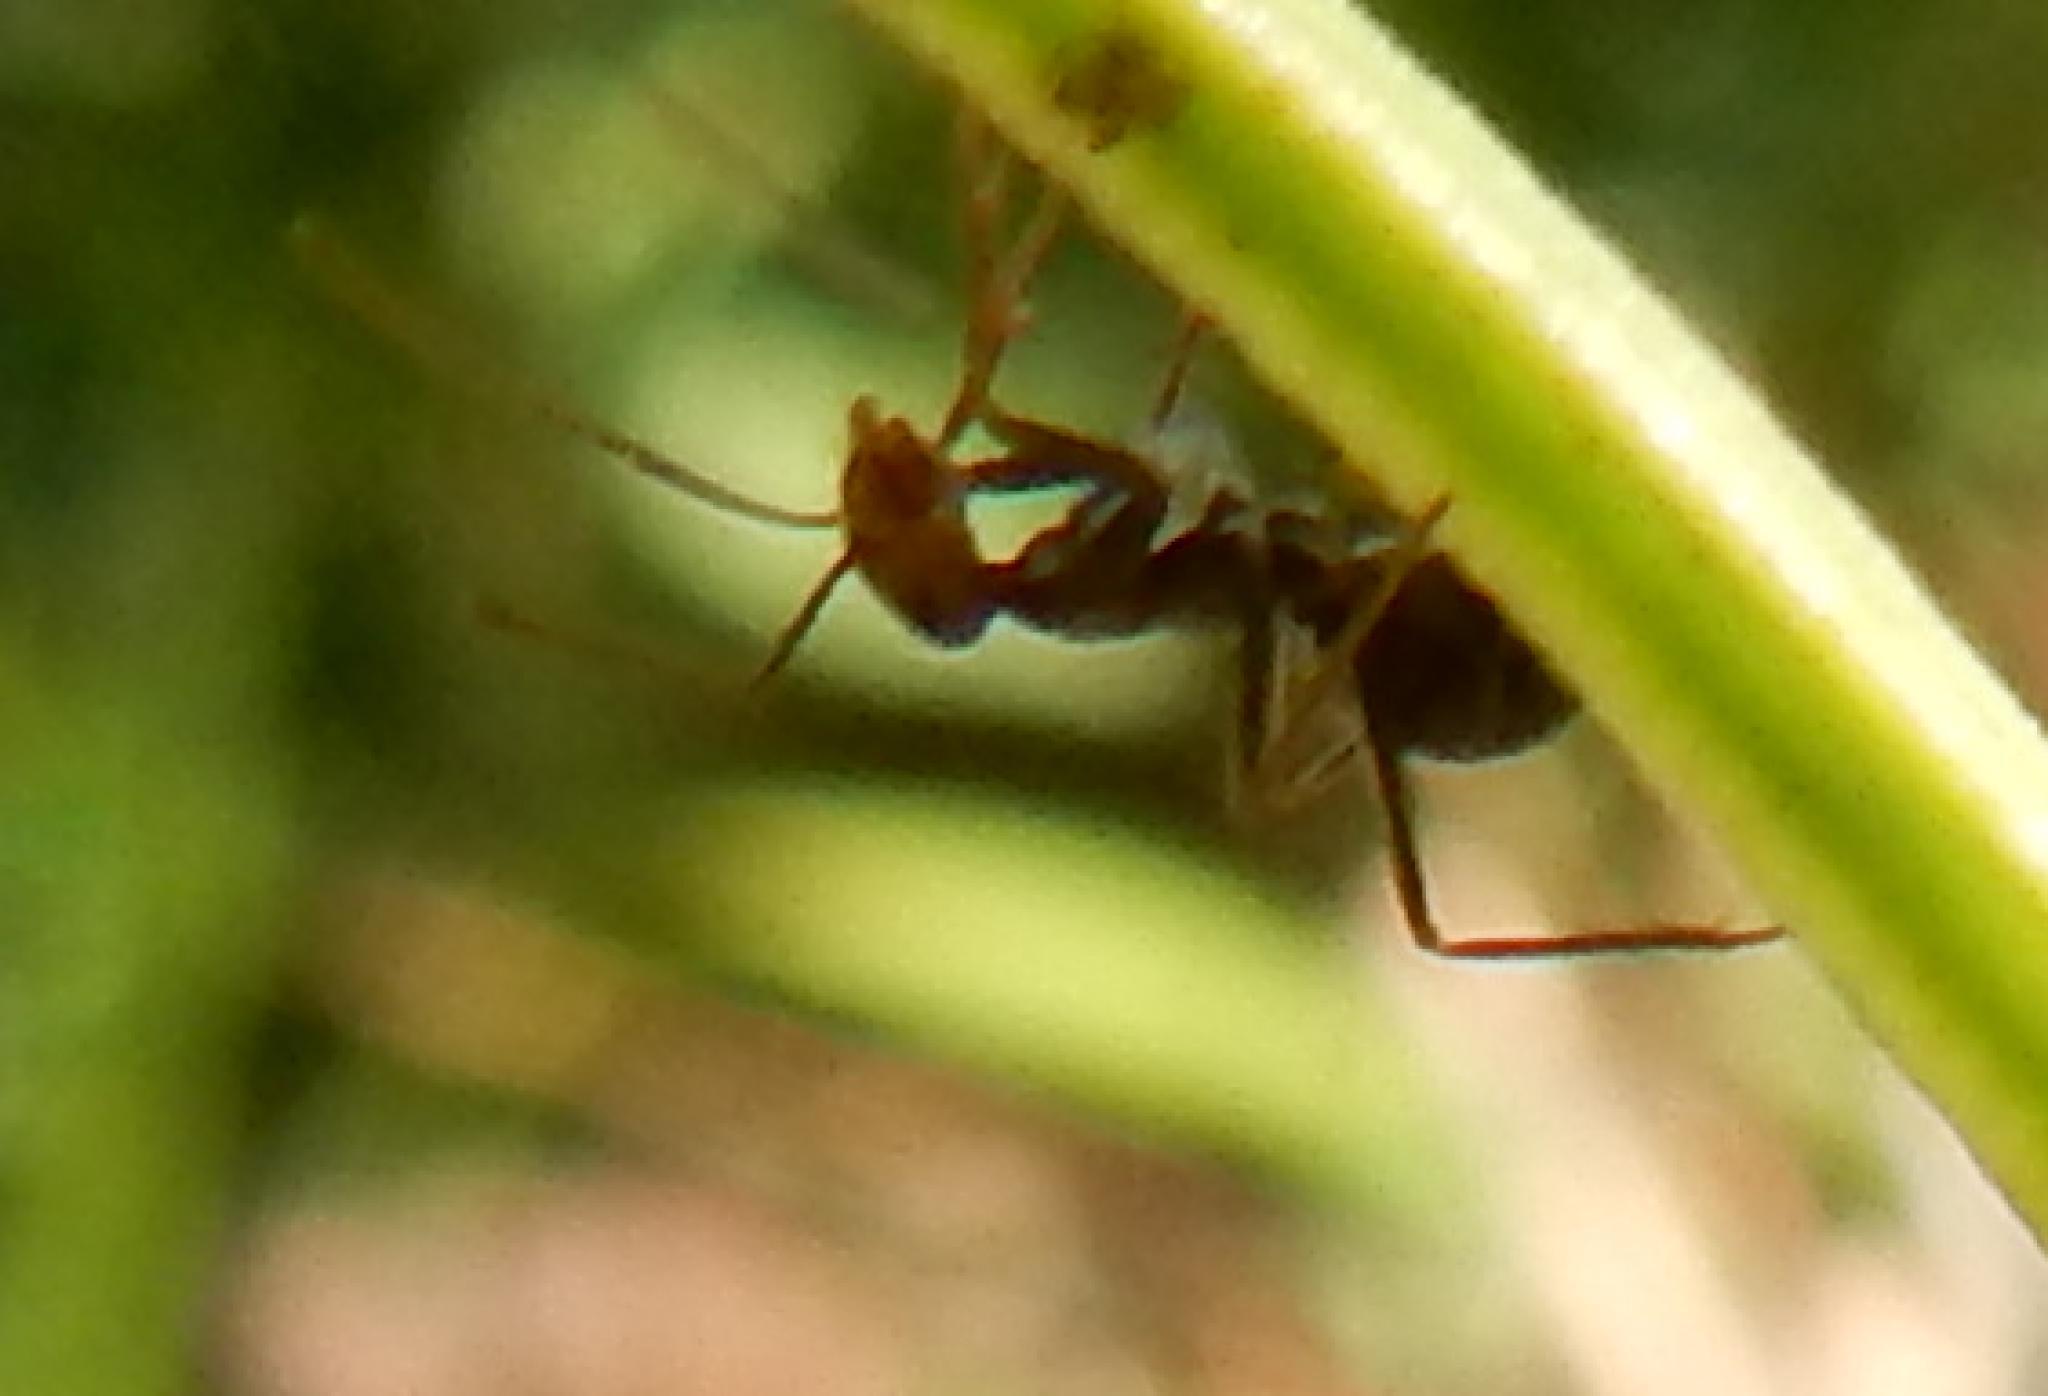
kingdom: Animalia
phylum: Arthropoda
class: Insecta
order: Hymenoptera
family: Formicidae
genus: Anoplolepis
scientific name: Anoplolepis custodiens
